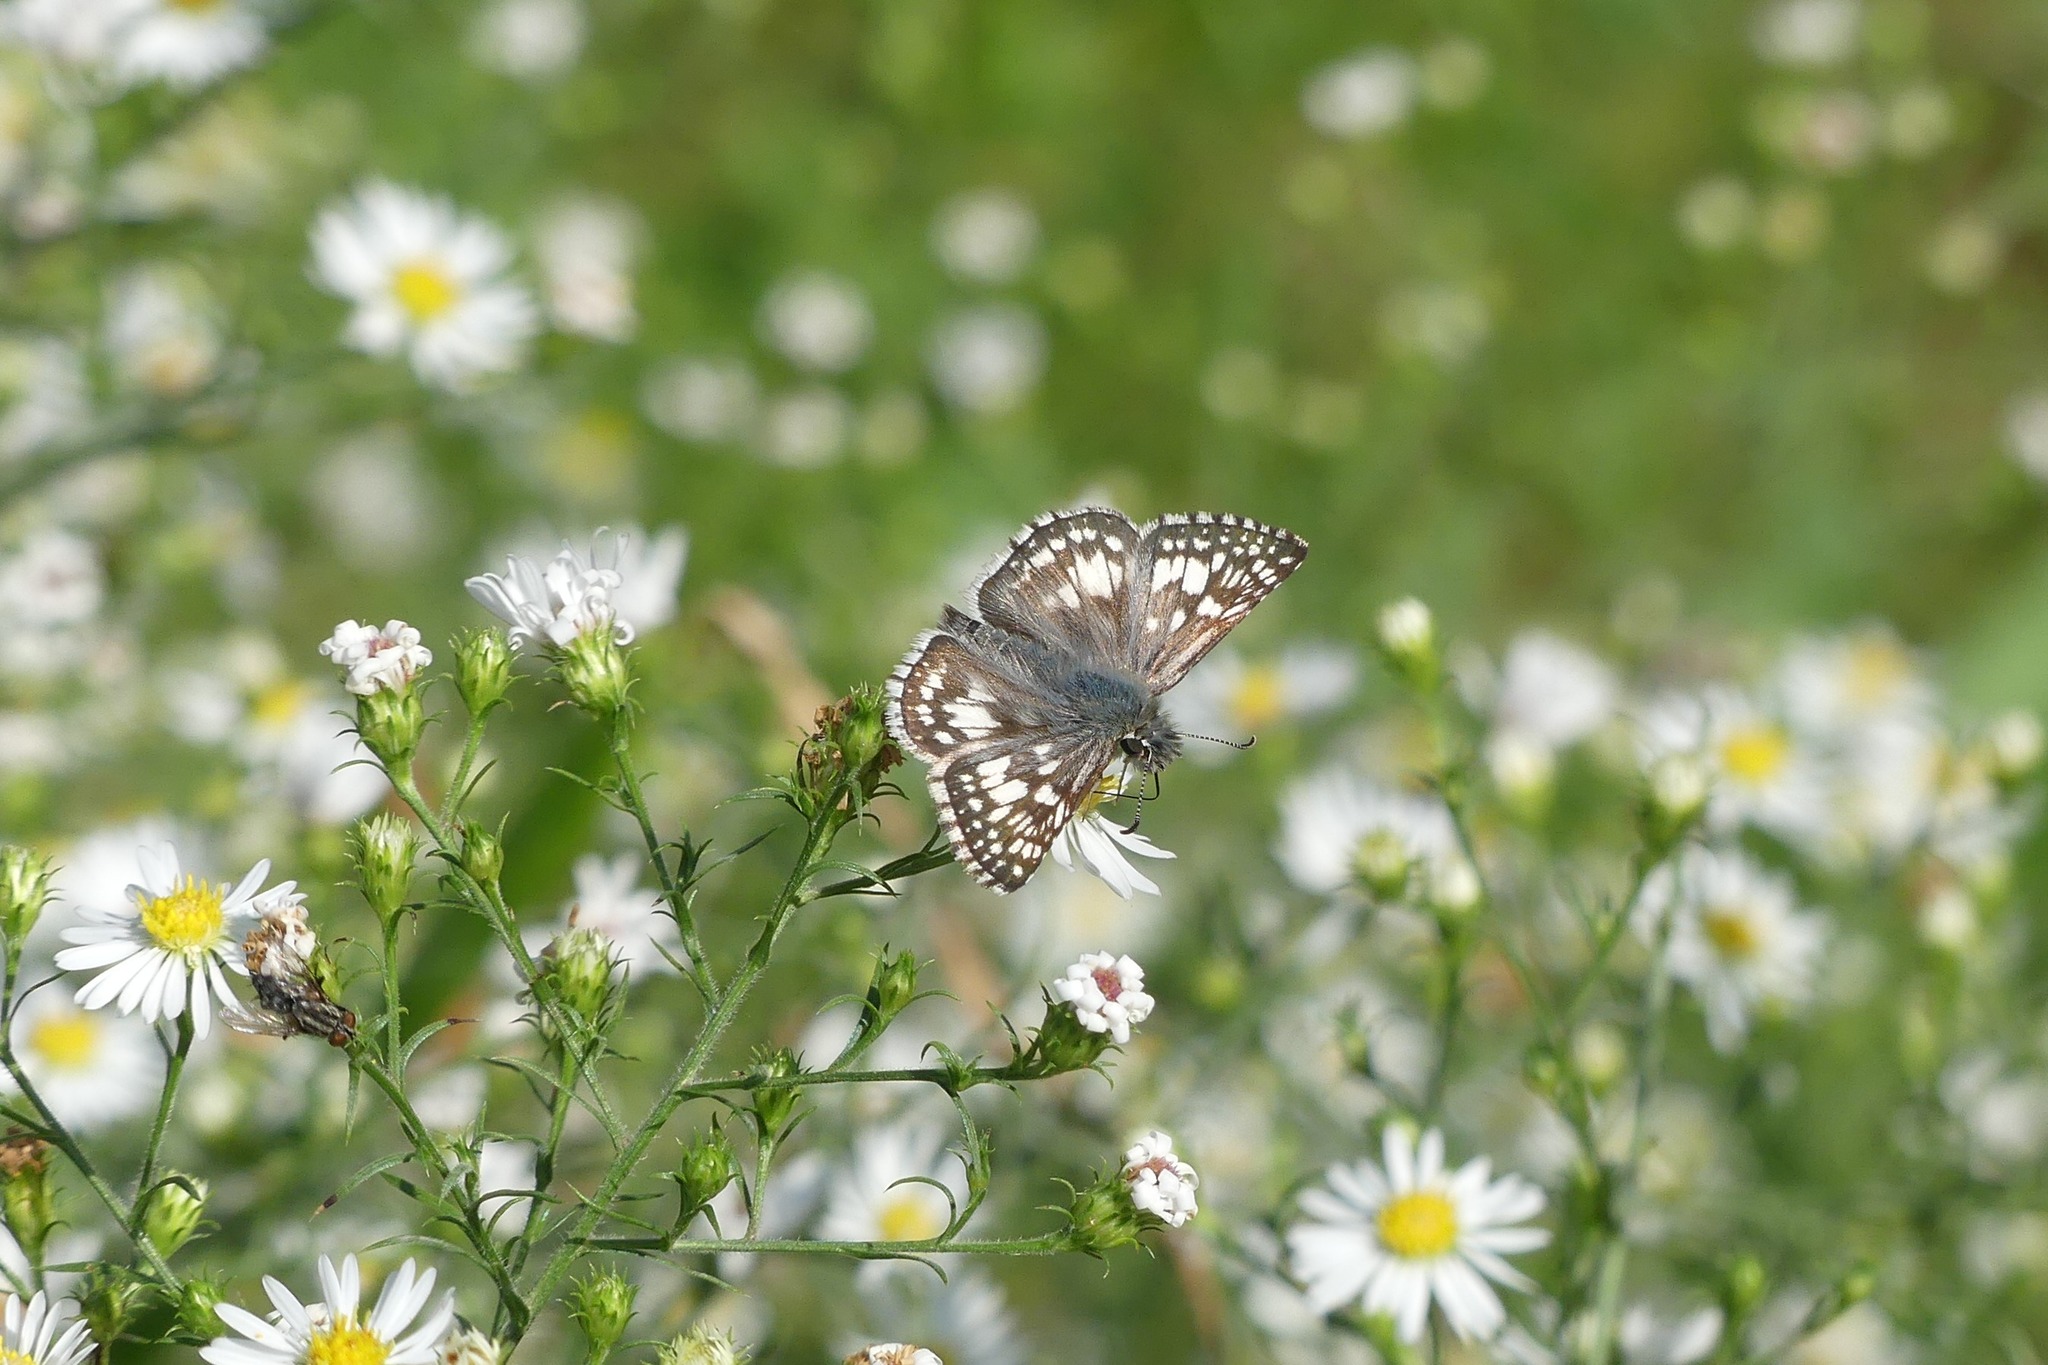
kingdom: Animalia
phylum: Arthropoda
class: Insecta
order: Lepidoptera
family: Hesperiidae
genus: Burnsius
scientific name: Burnsius communis
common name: Common checkered-skipper
